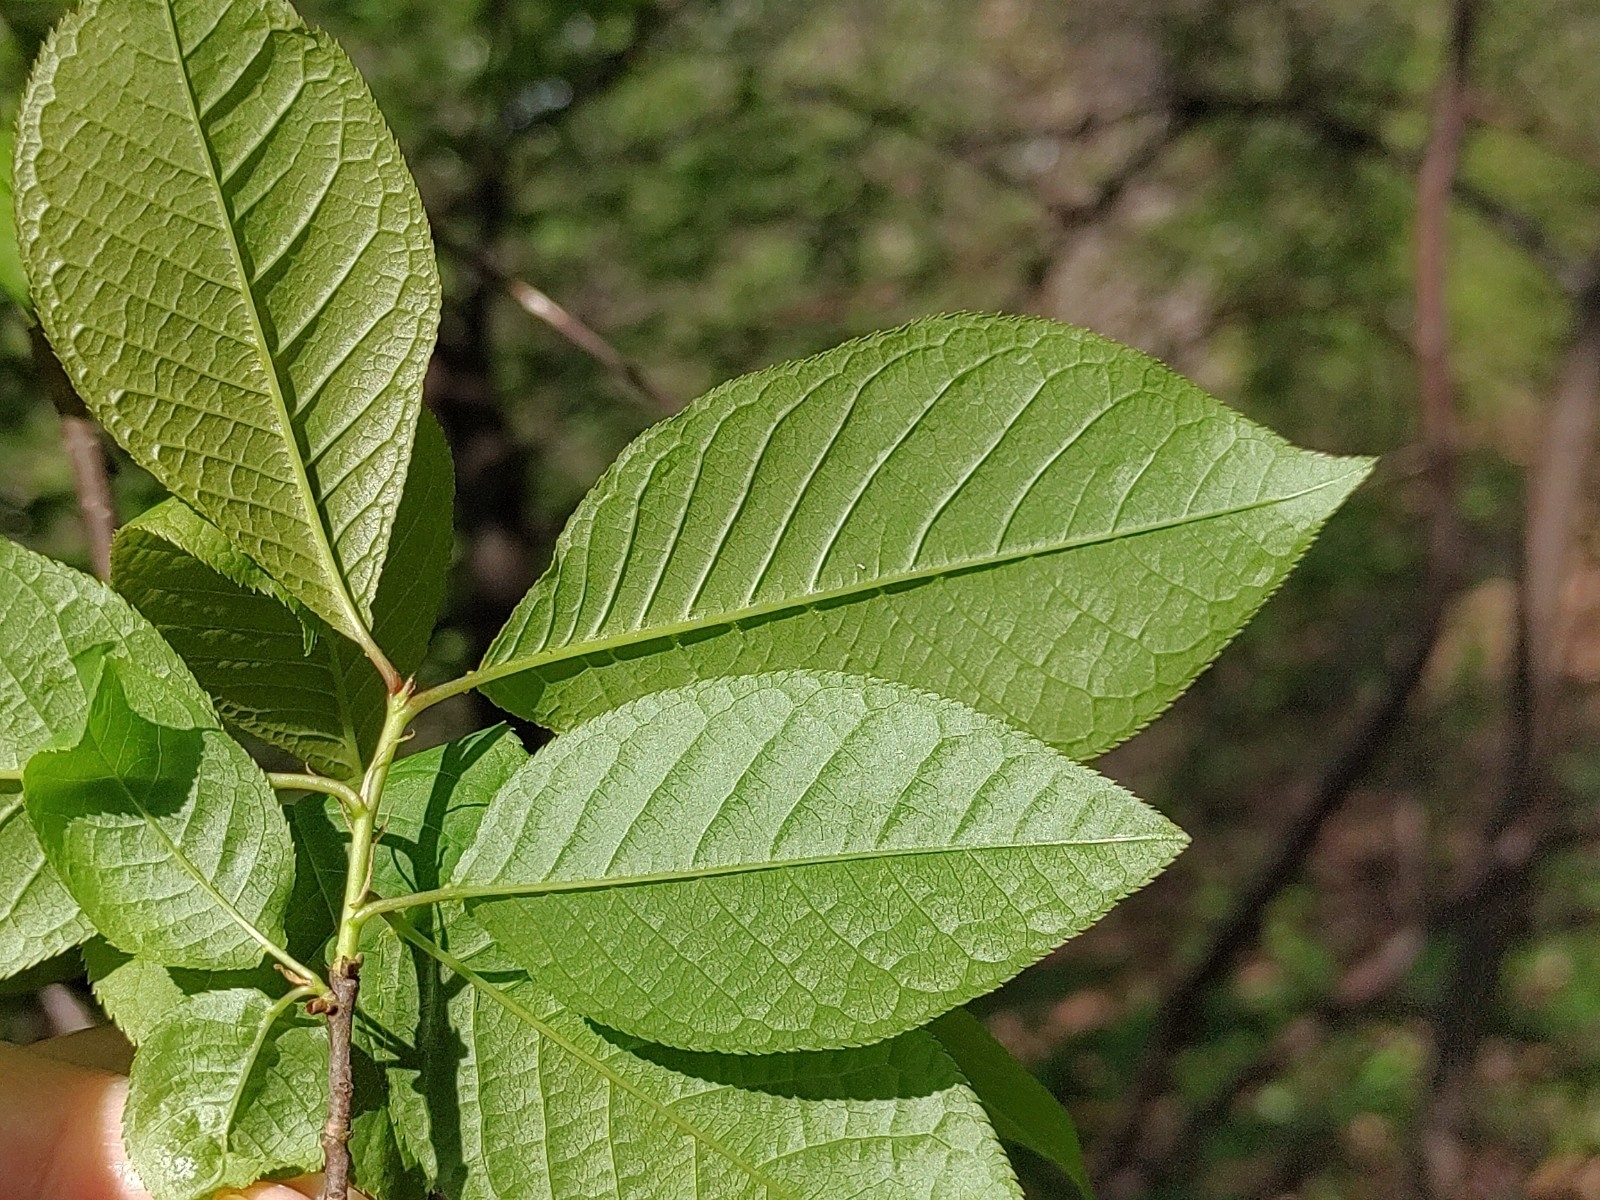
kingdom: Plantae
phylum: Tracheophyta
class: Magnoliopsida
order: Rosales
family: Rosaceae
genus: Prunus
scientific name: Prunus padus
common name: Bird cherry
